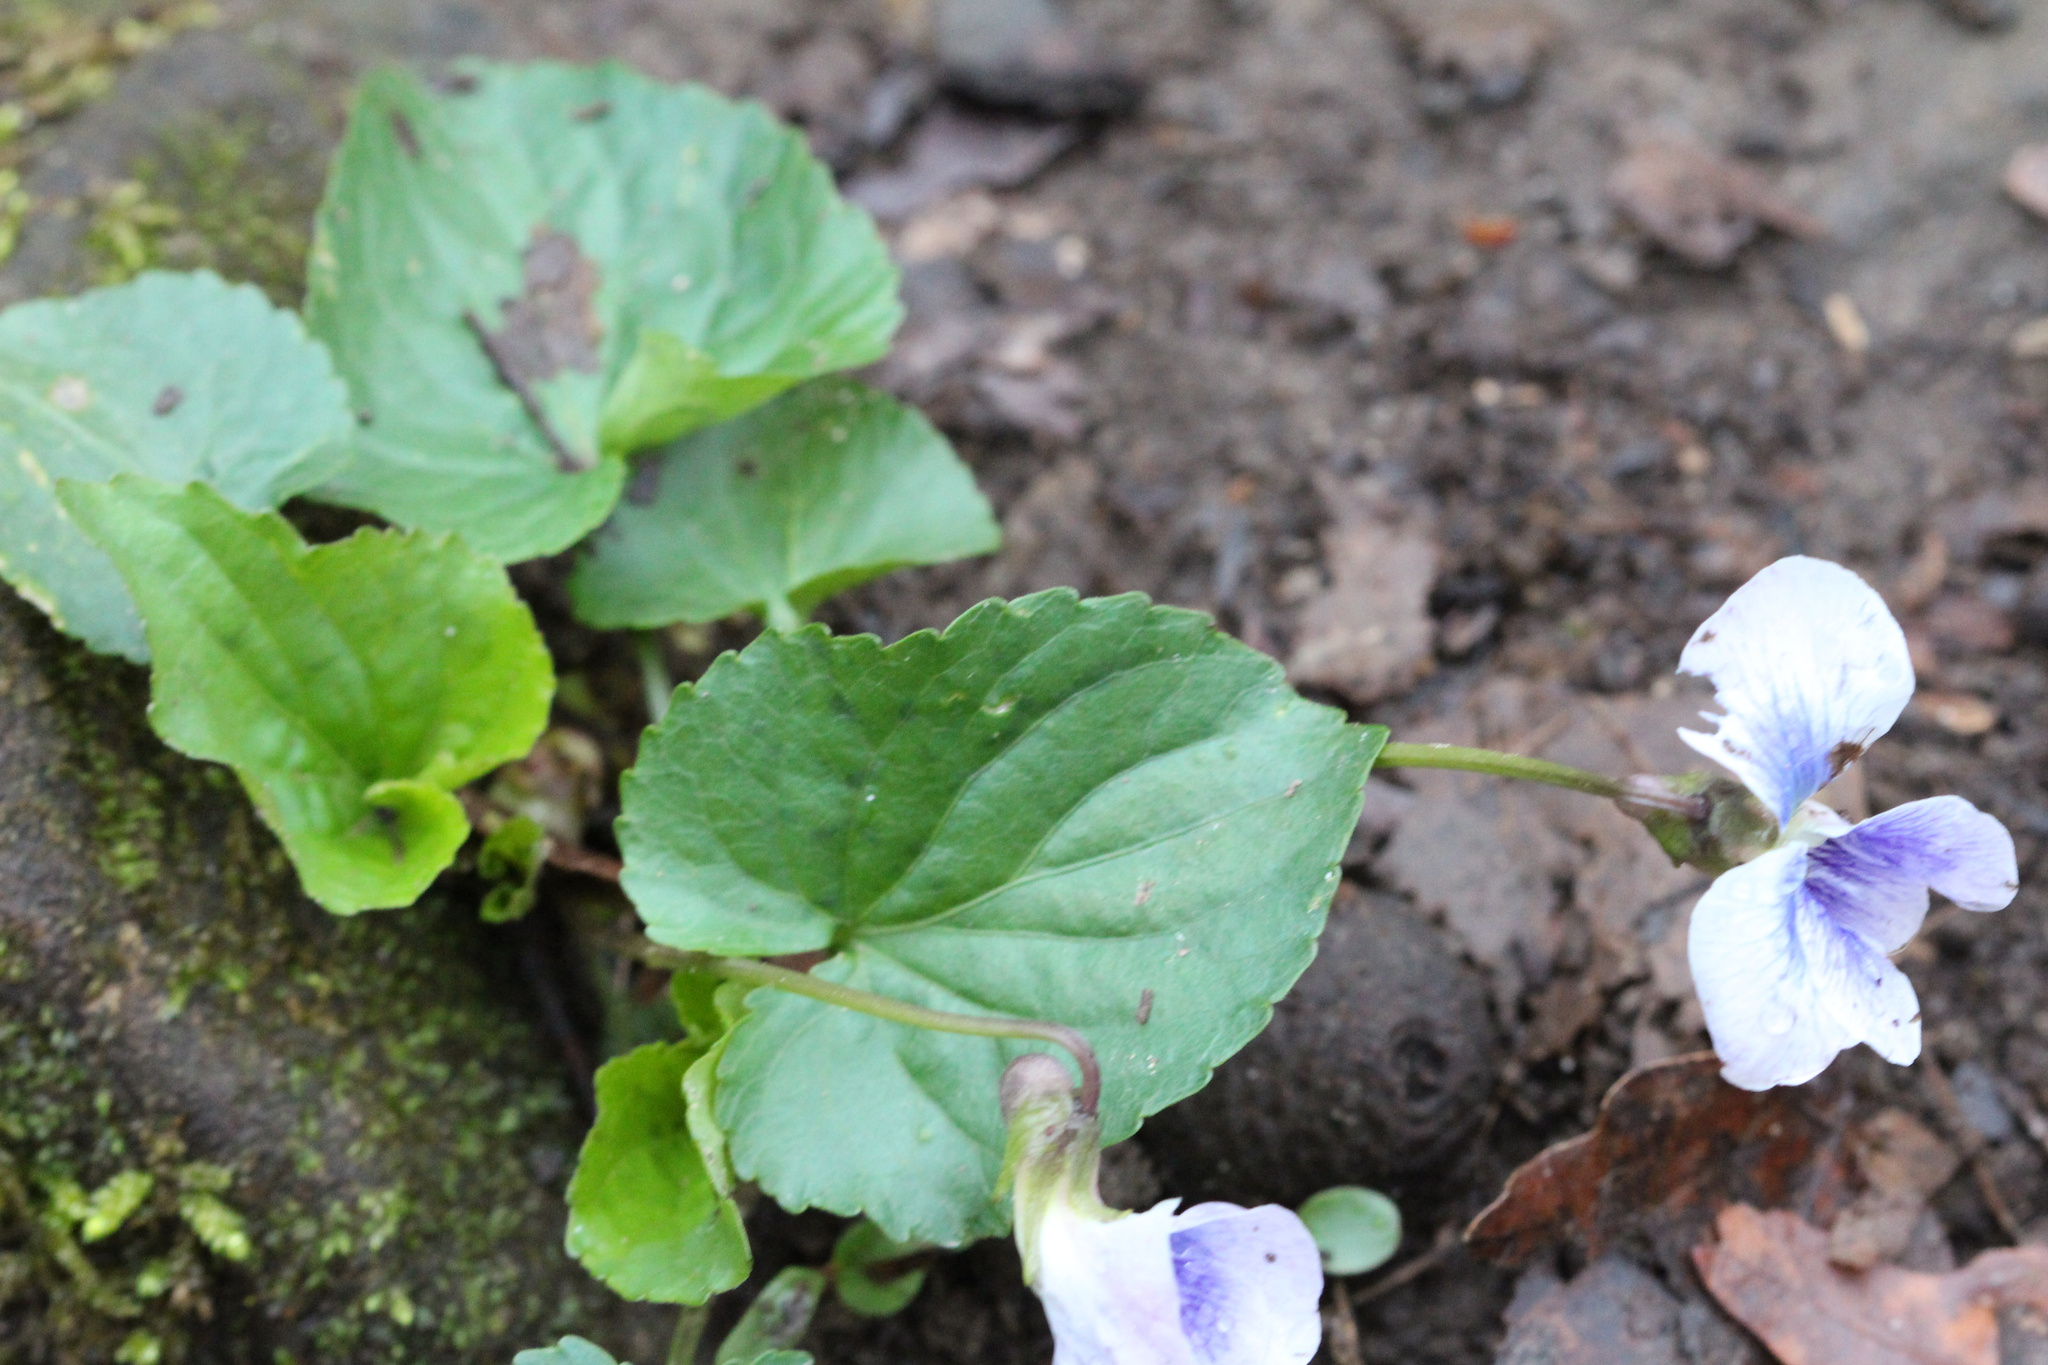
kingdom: Plantae
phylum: Tracheophyta
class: Magnoliopsida
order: Malpighiales
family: Violaceae
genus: Viola
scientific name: Viola sororia
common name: Dooryard violet
